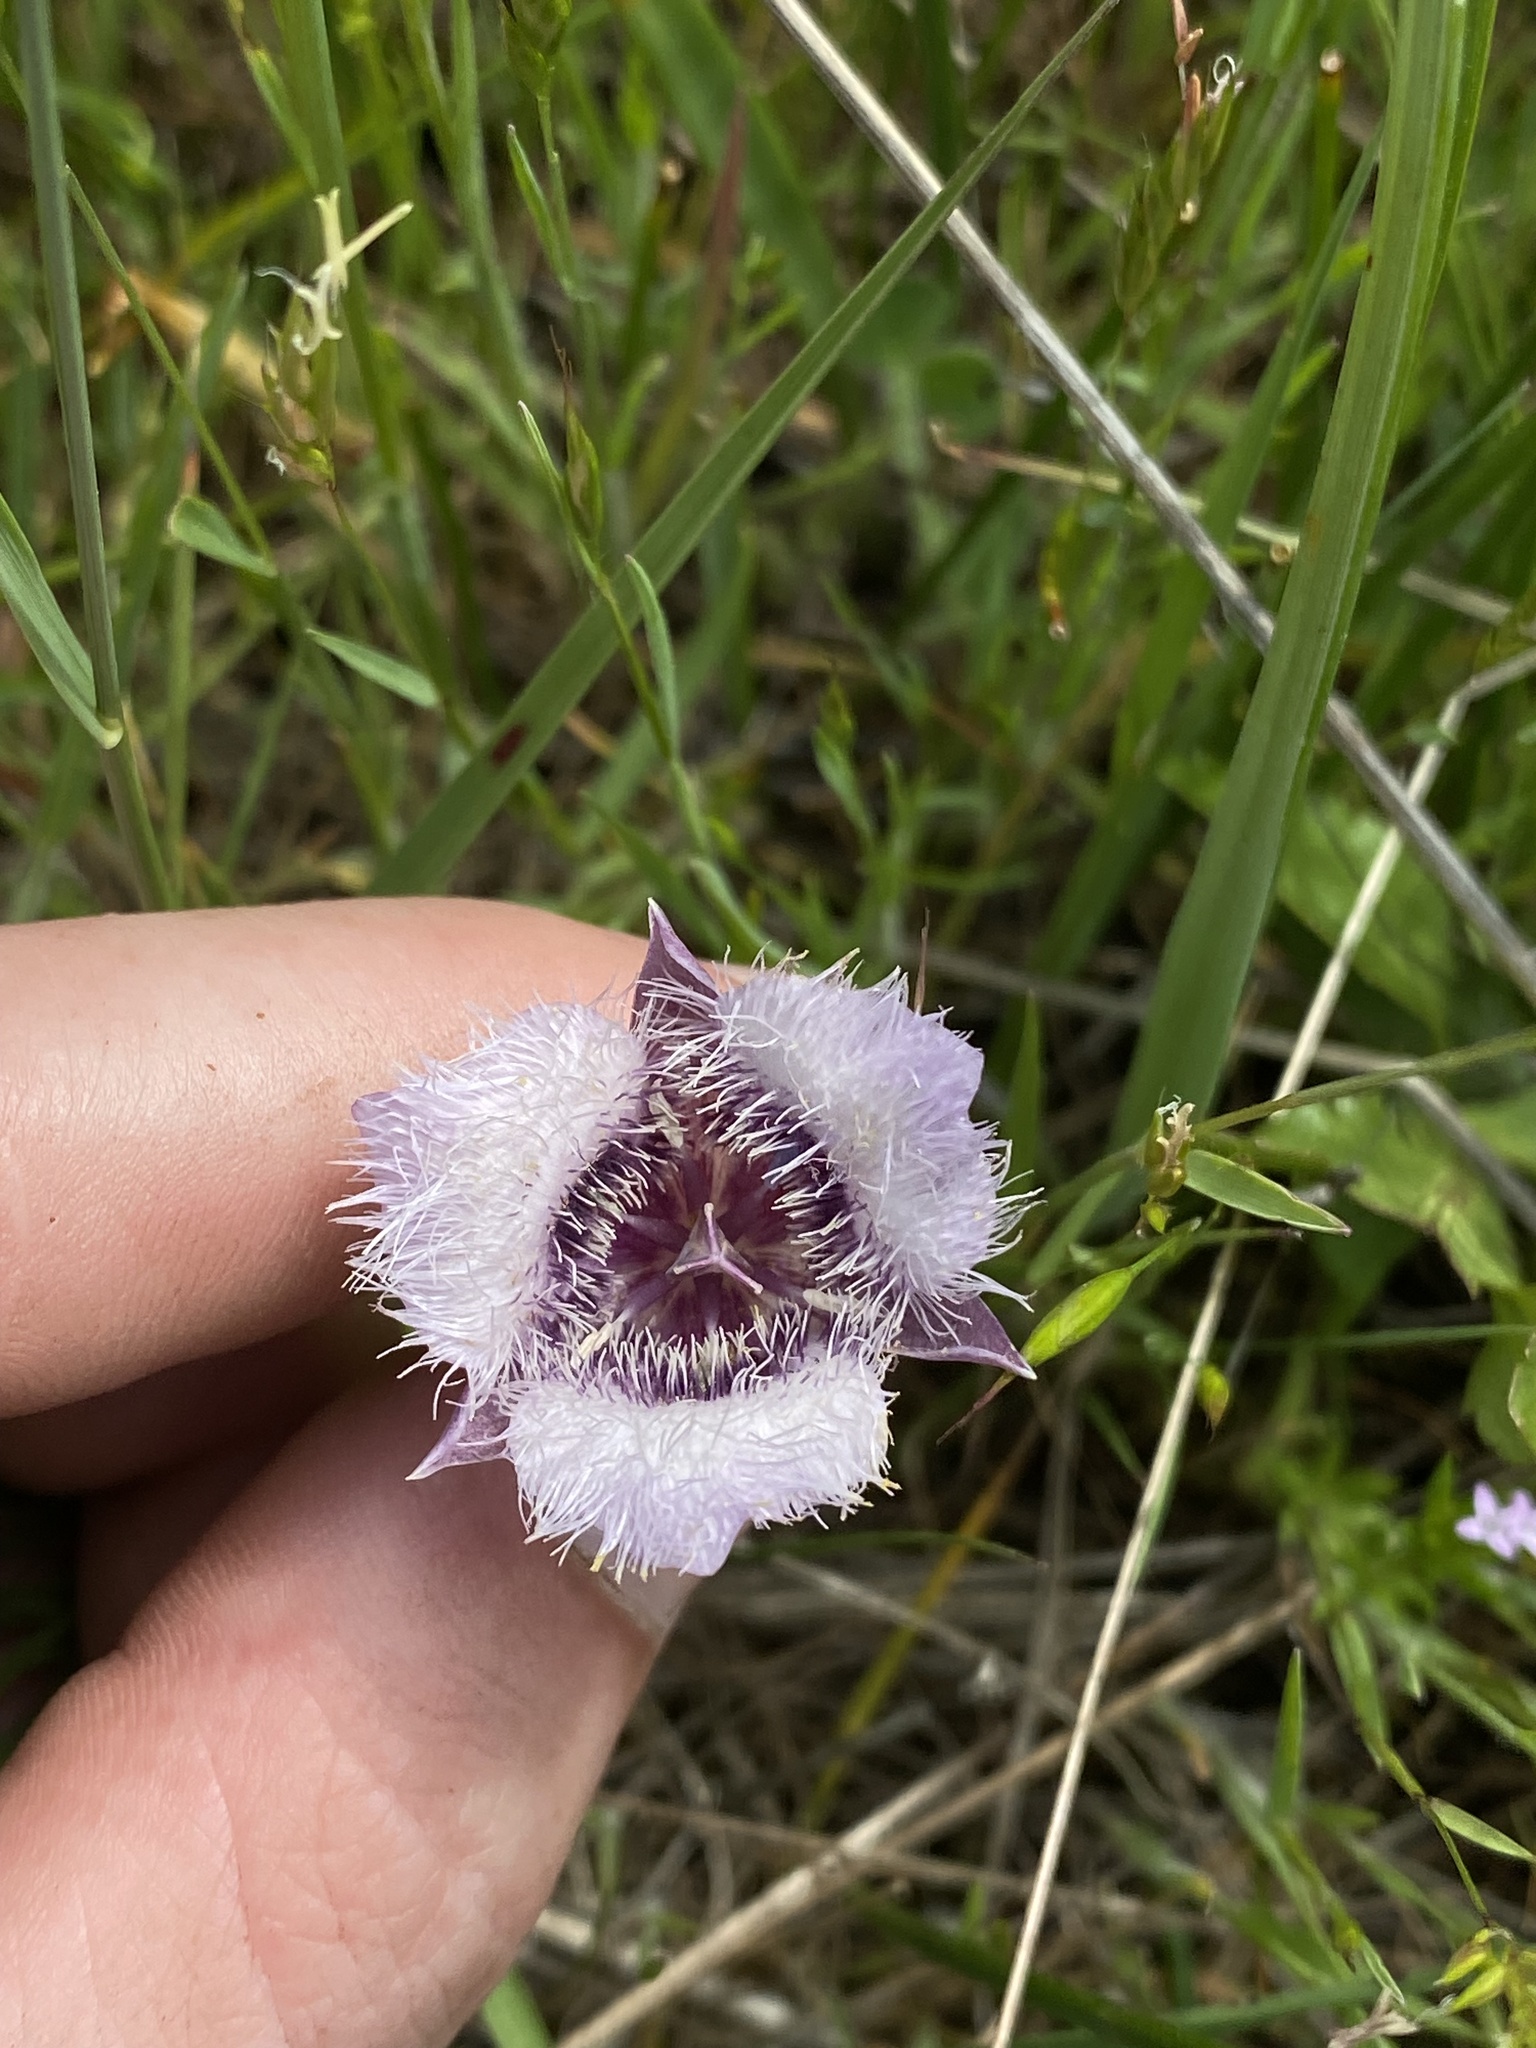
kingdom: Plantae
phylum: Tracheophyta
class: Liliopsida
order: Liliales
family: Liliaceae
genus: Calochortus
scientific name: Calochortus tolmiei
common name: Pussy-ears
